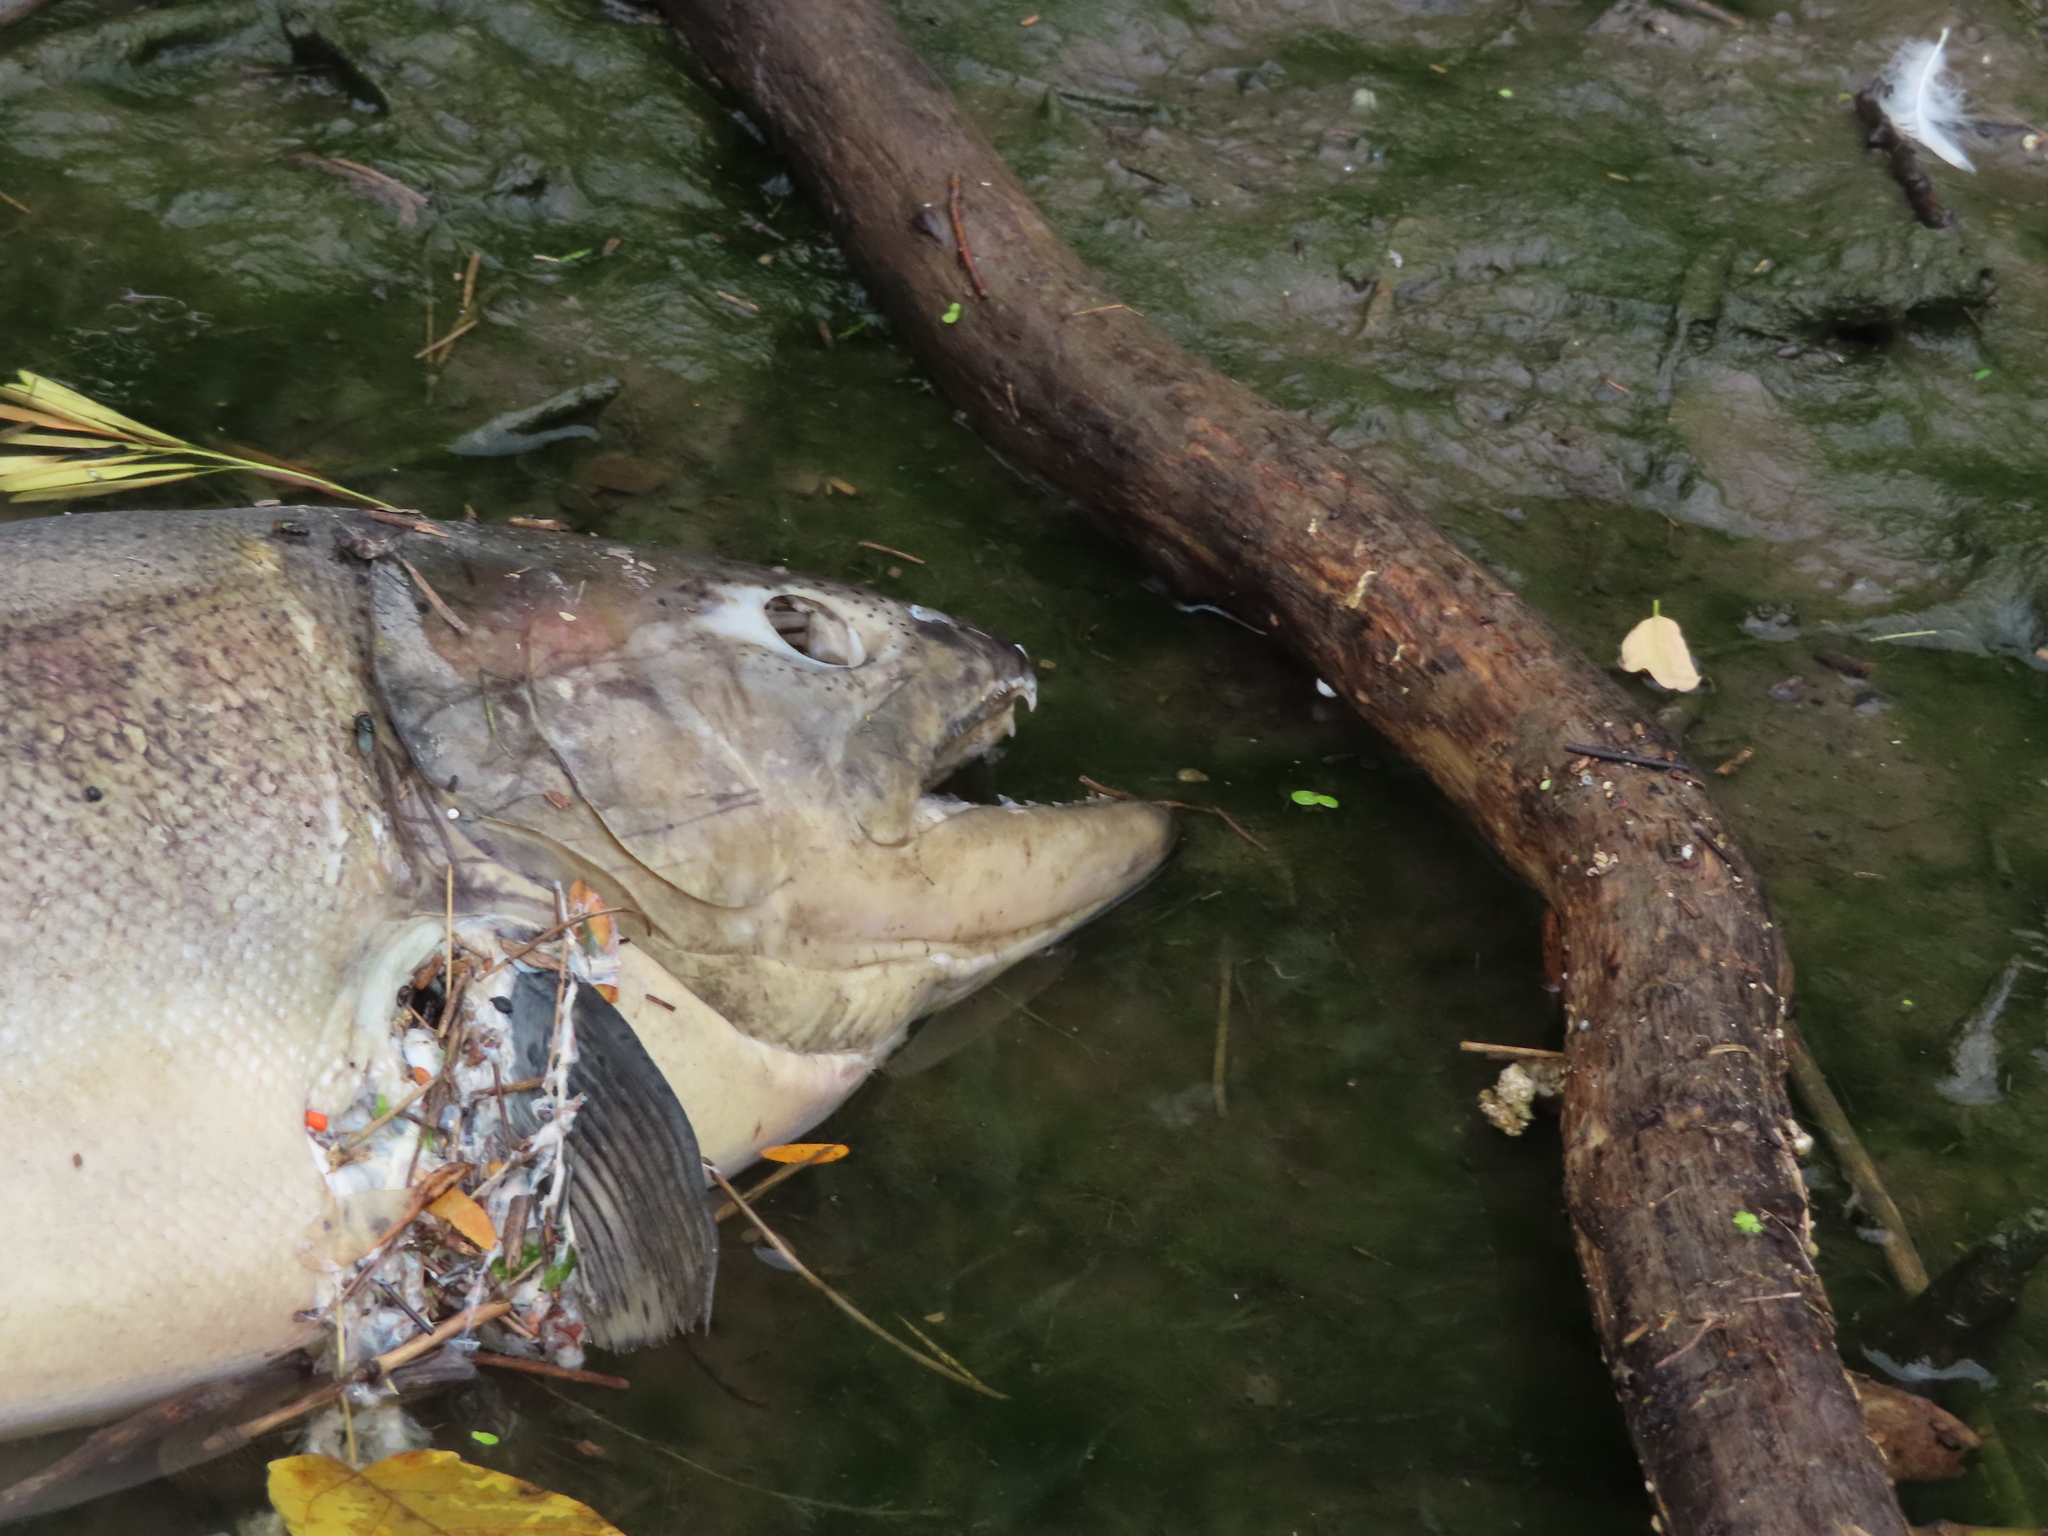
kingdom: Animalia
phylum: Chordata
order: Salmoniformes
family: Salmonidae
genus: Oncorhynchus
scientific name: Oncorhynchus tshawytscha
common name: Chinook salmon
